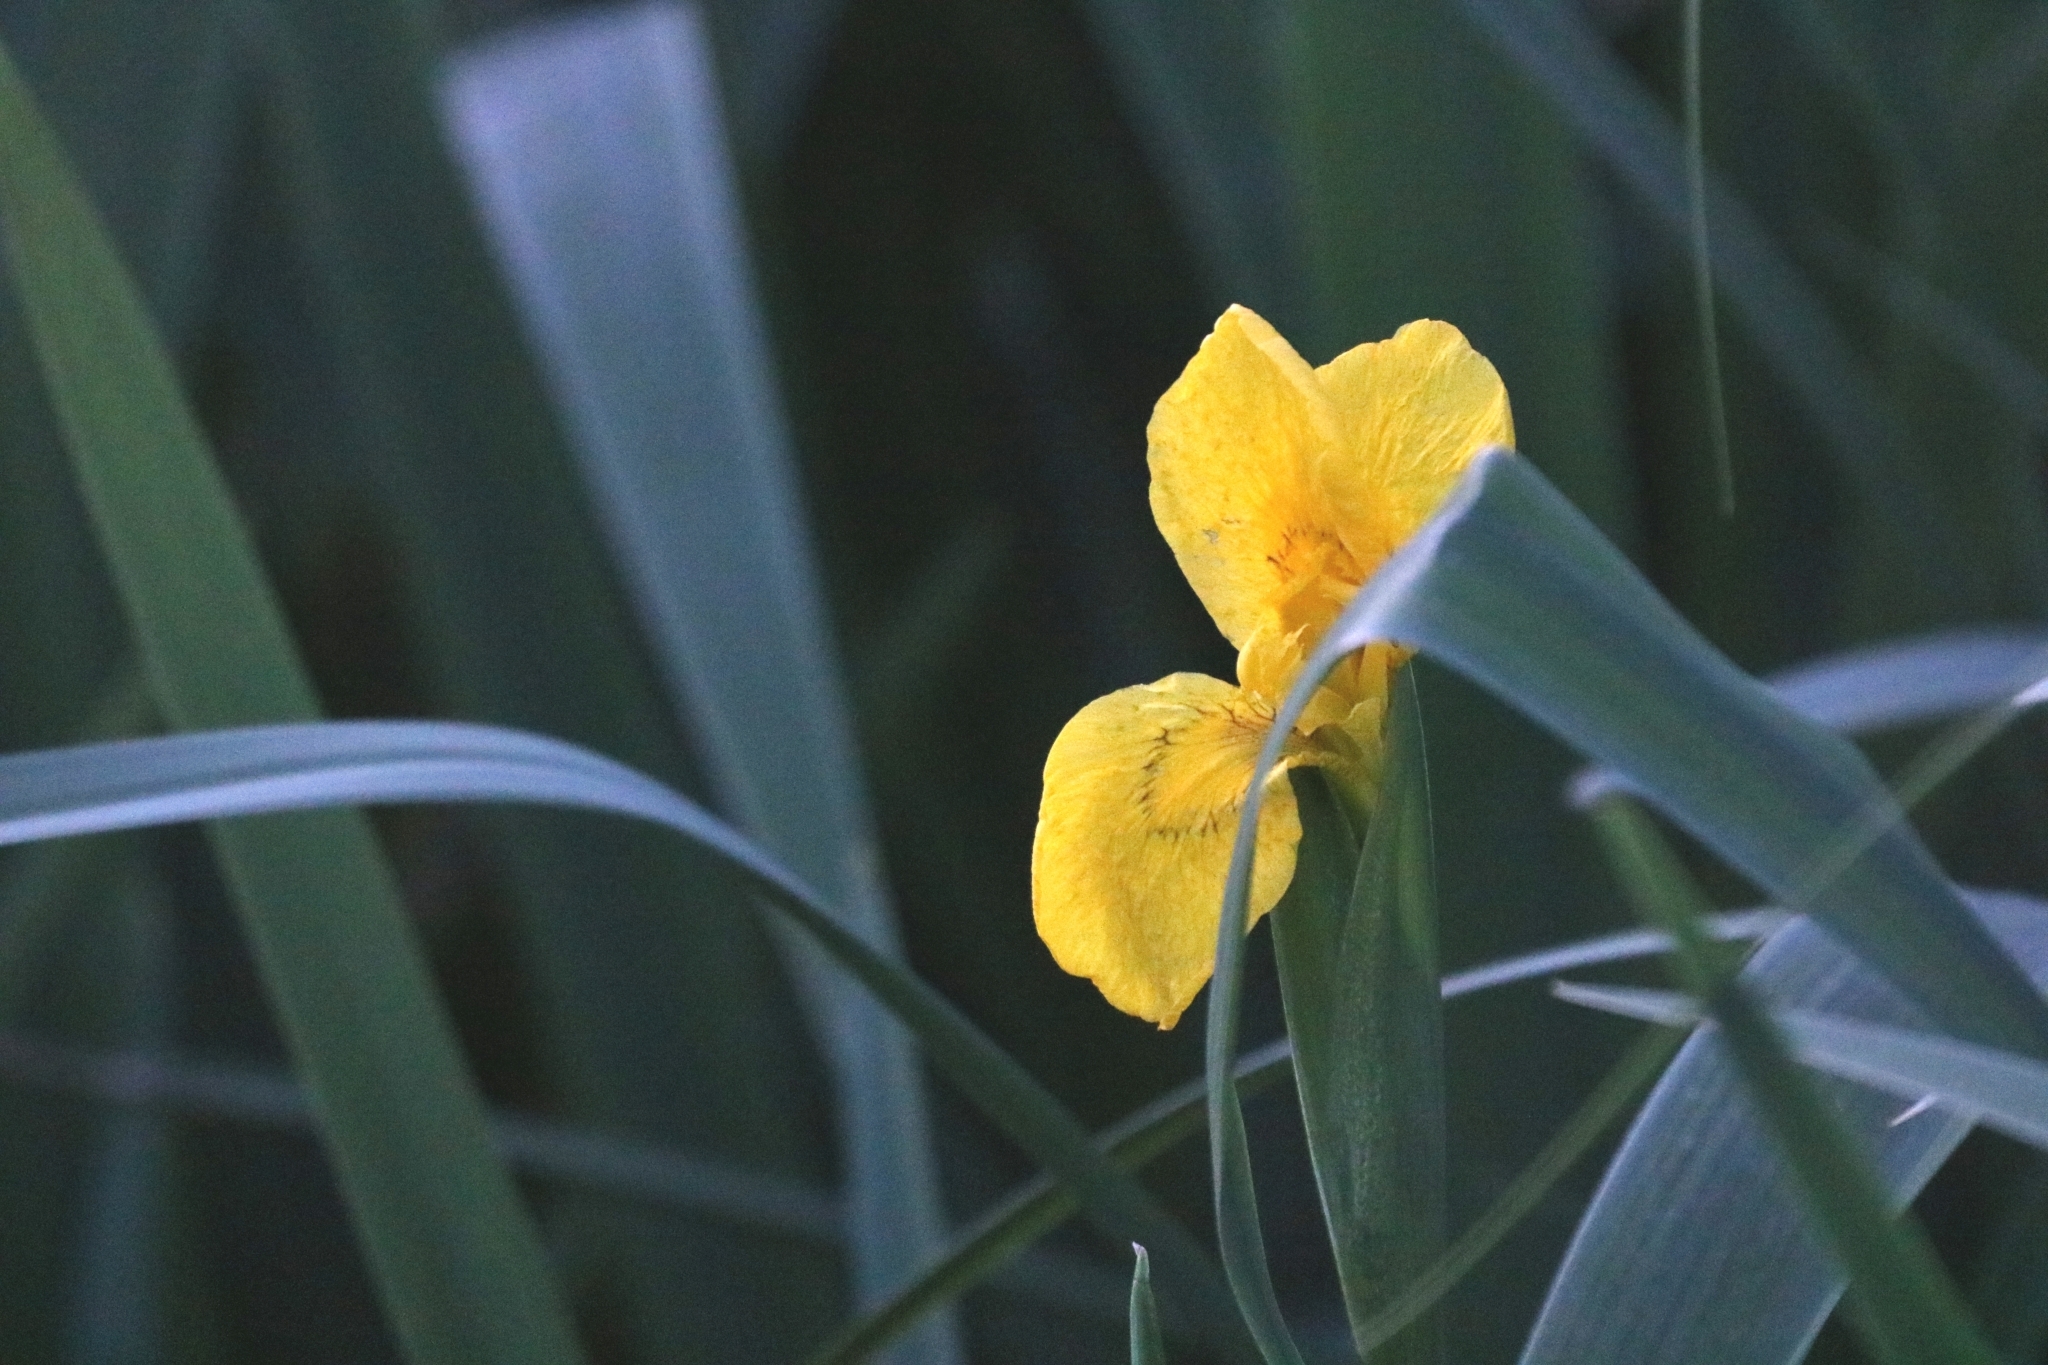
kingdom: Plantae
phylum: Tracheophyta
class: Liliopsida
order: Asparagales
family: Iridaceae
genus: Iris
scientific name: Iris pseudacorus
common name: Yellow flag
